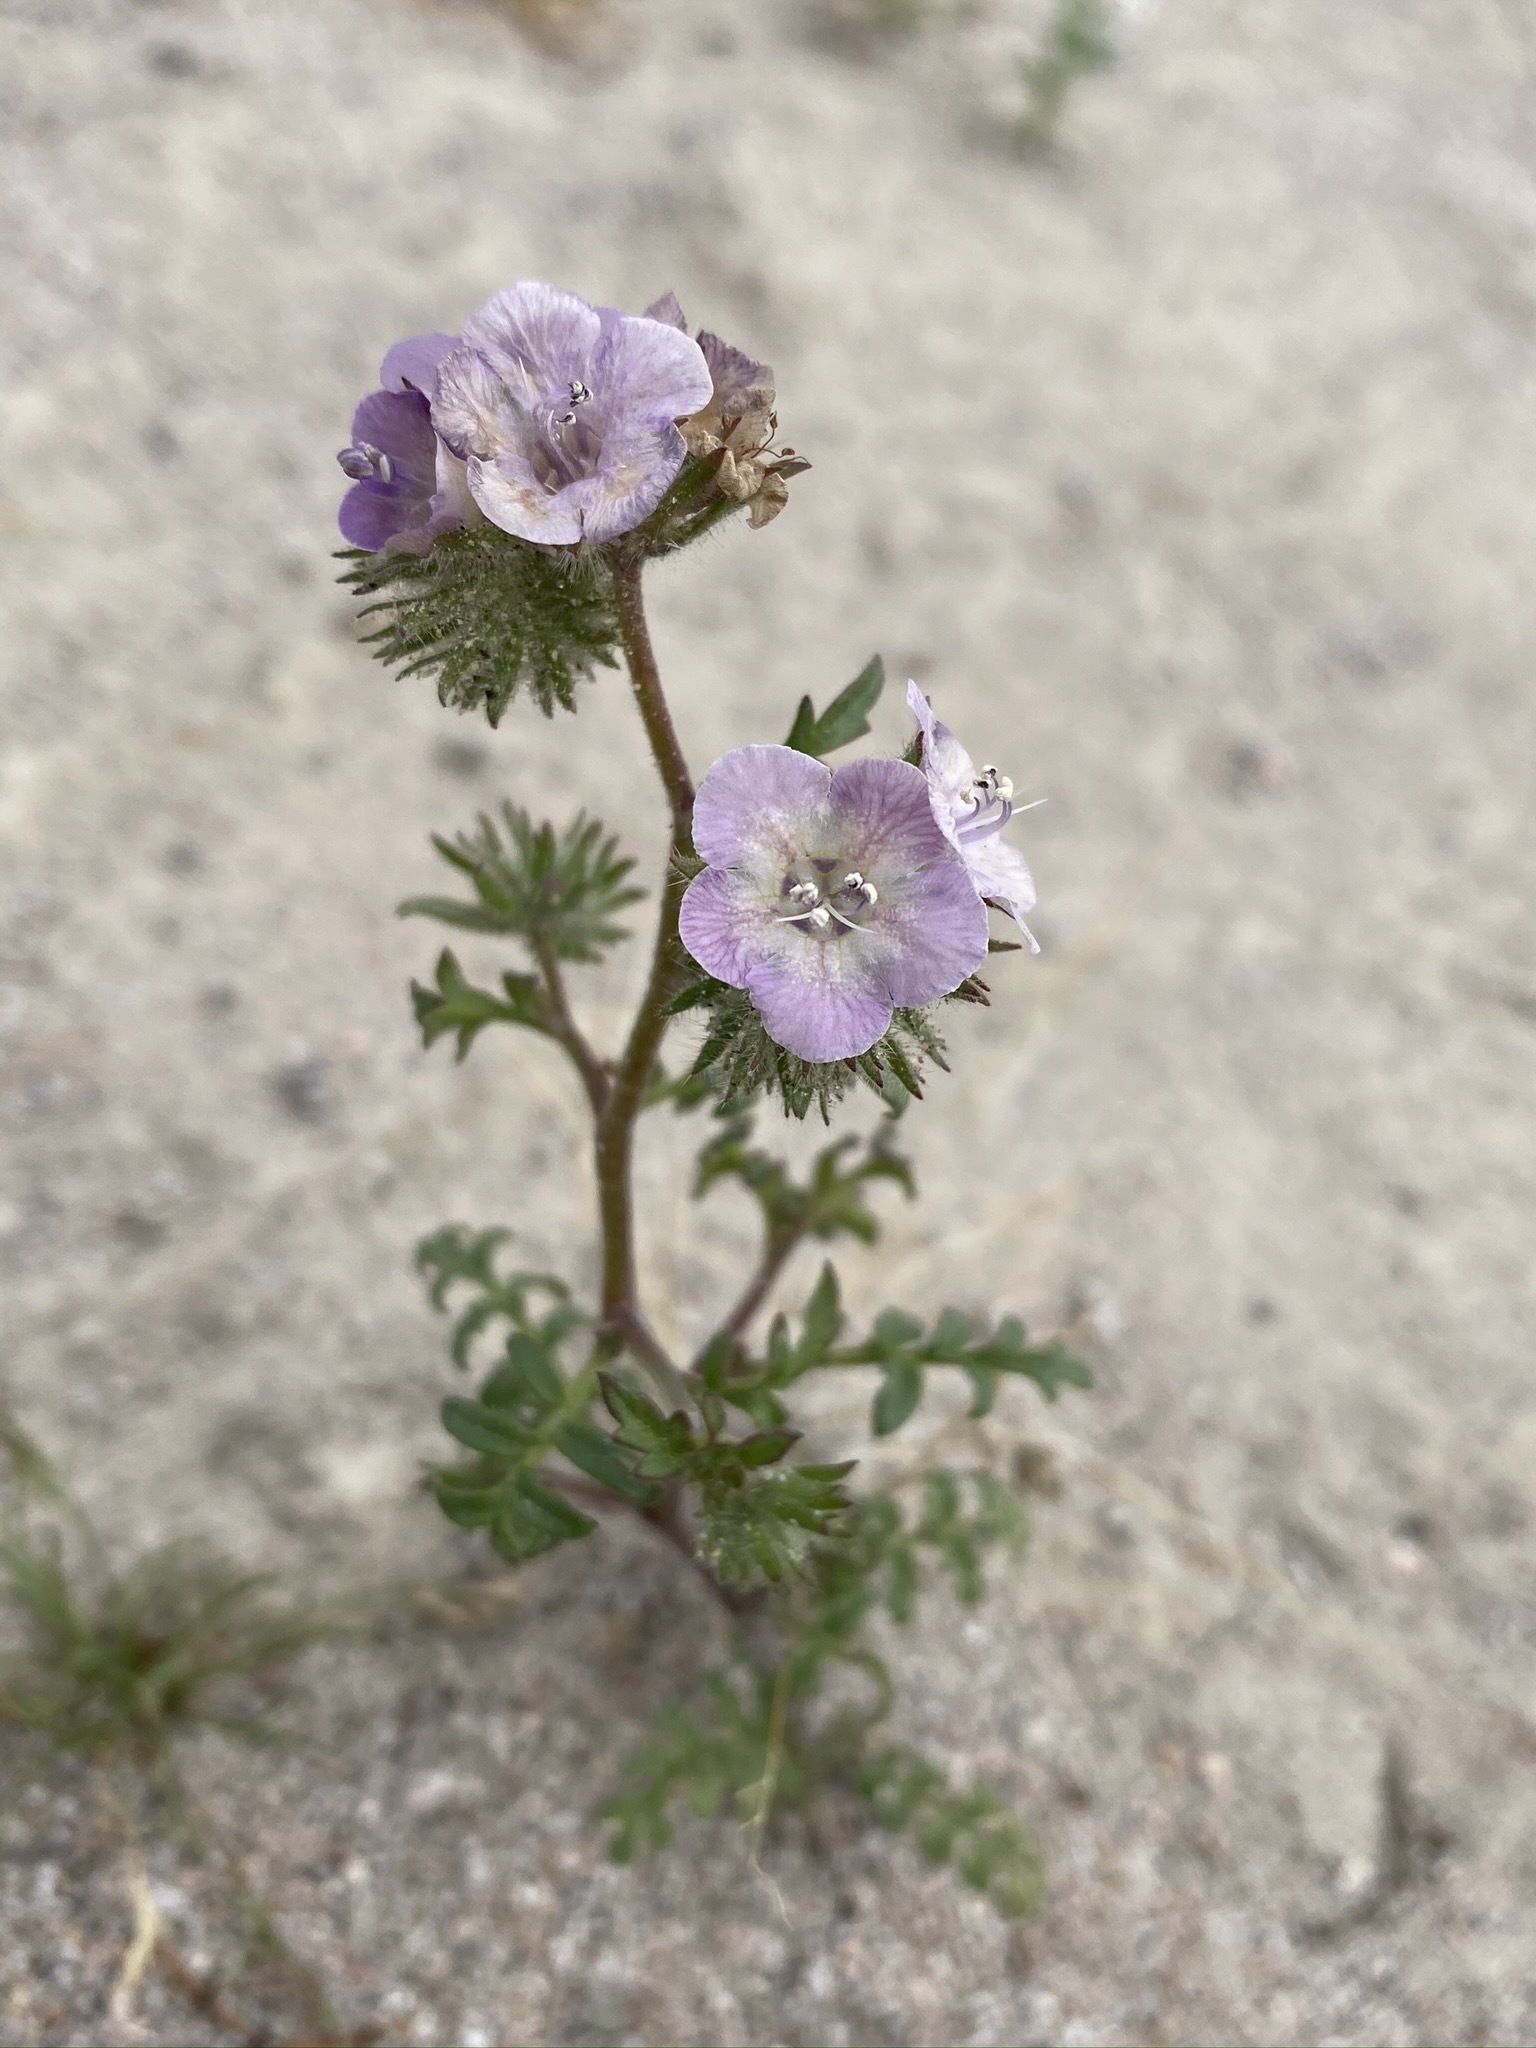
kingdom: Plantae
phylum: Tracheophyta
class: Magnoliopsida
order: Boraginales
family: Hydrophyllaceae
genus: Phacelia
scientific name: Phacelia vallis-mortae
